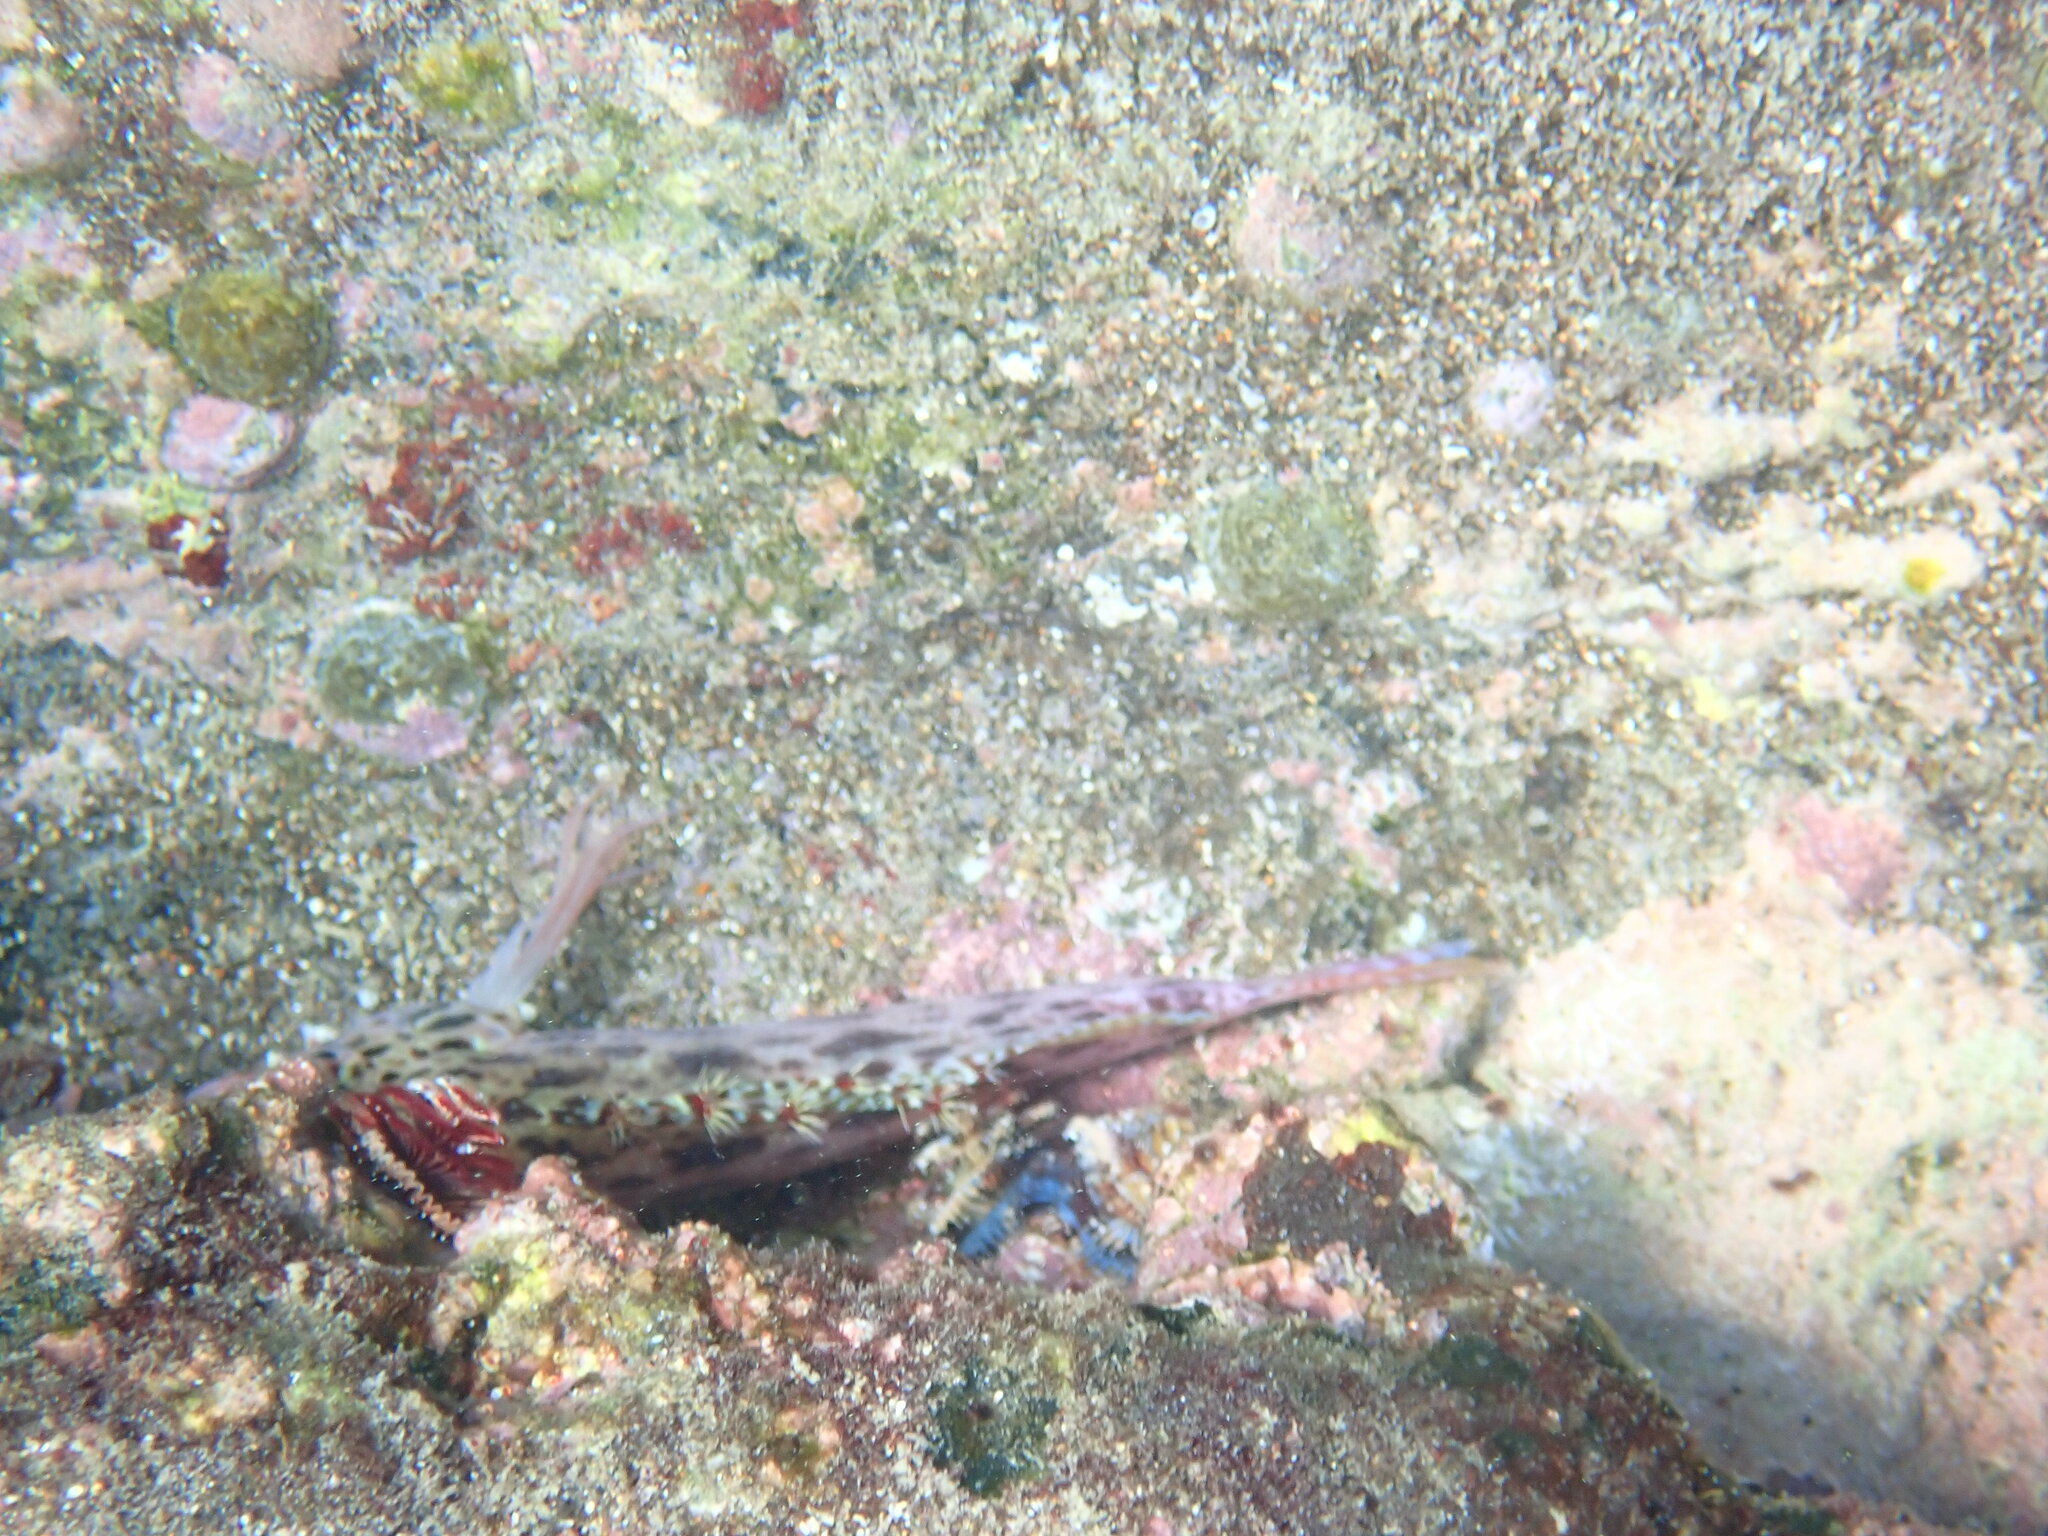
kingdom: Animalia
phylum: Chordata
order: Perciformes
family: Cirrhitidae
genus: Cirrhitichthys
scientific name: Cirrhitichthys oxycephalus
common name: Spotted hawkfish
